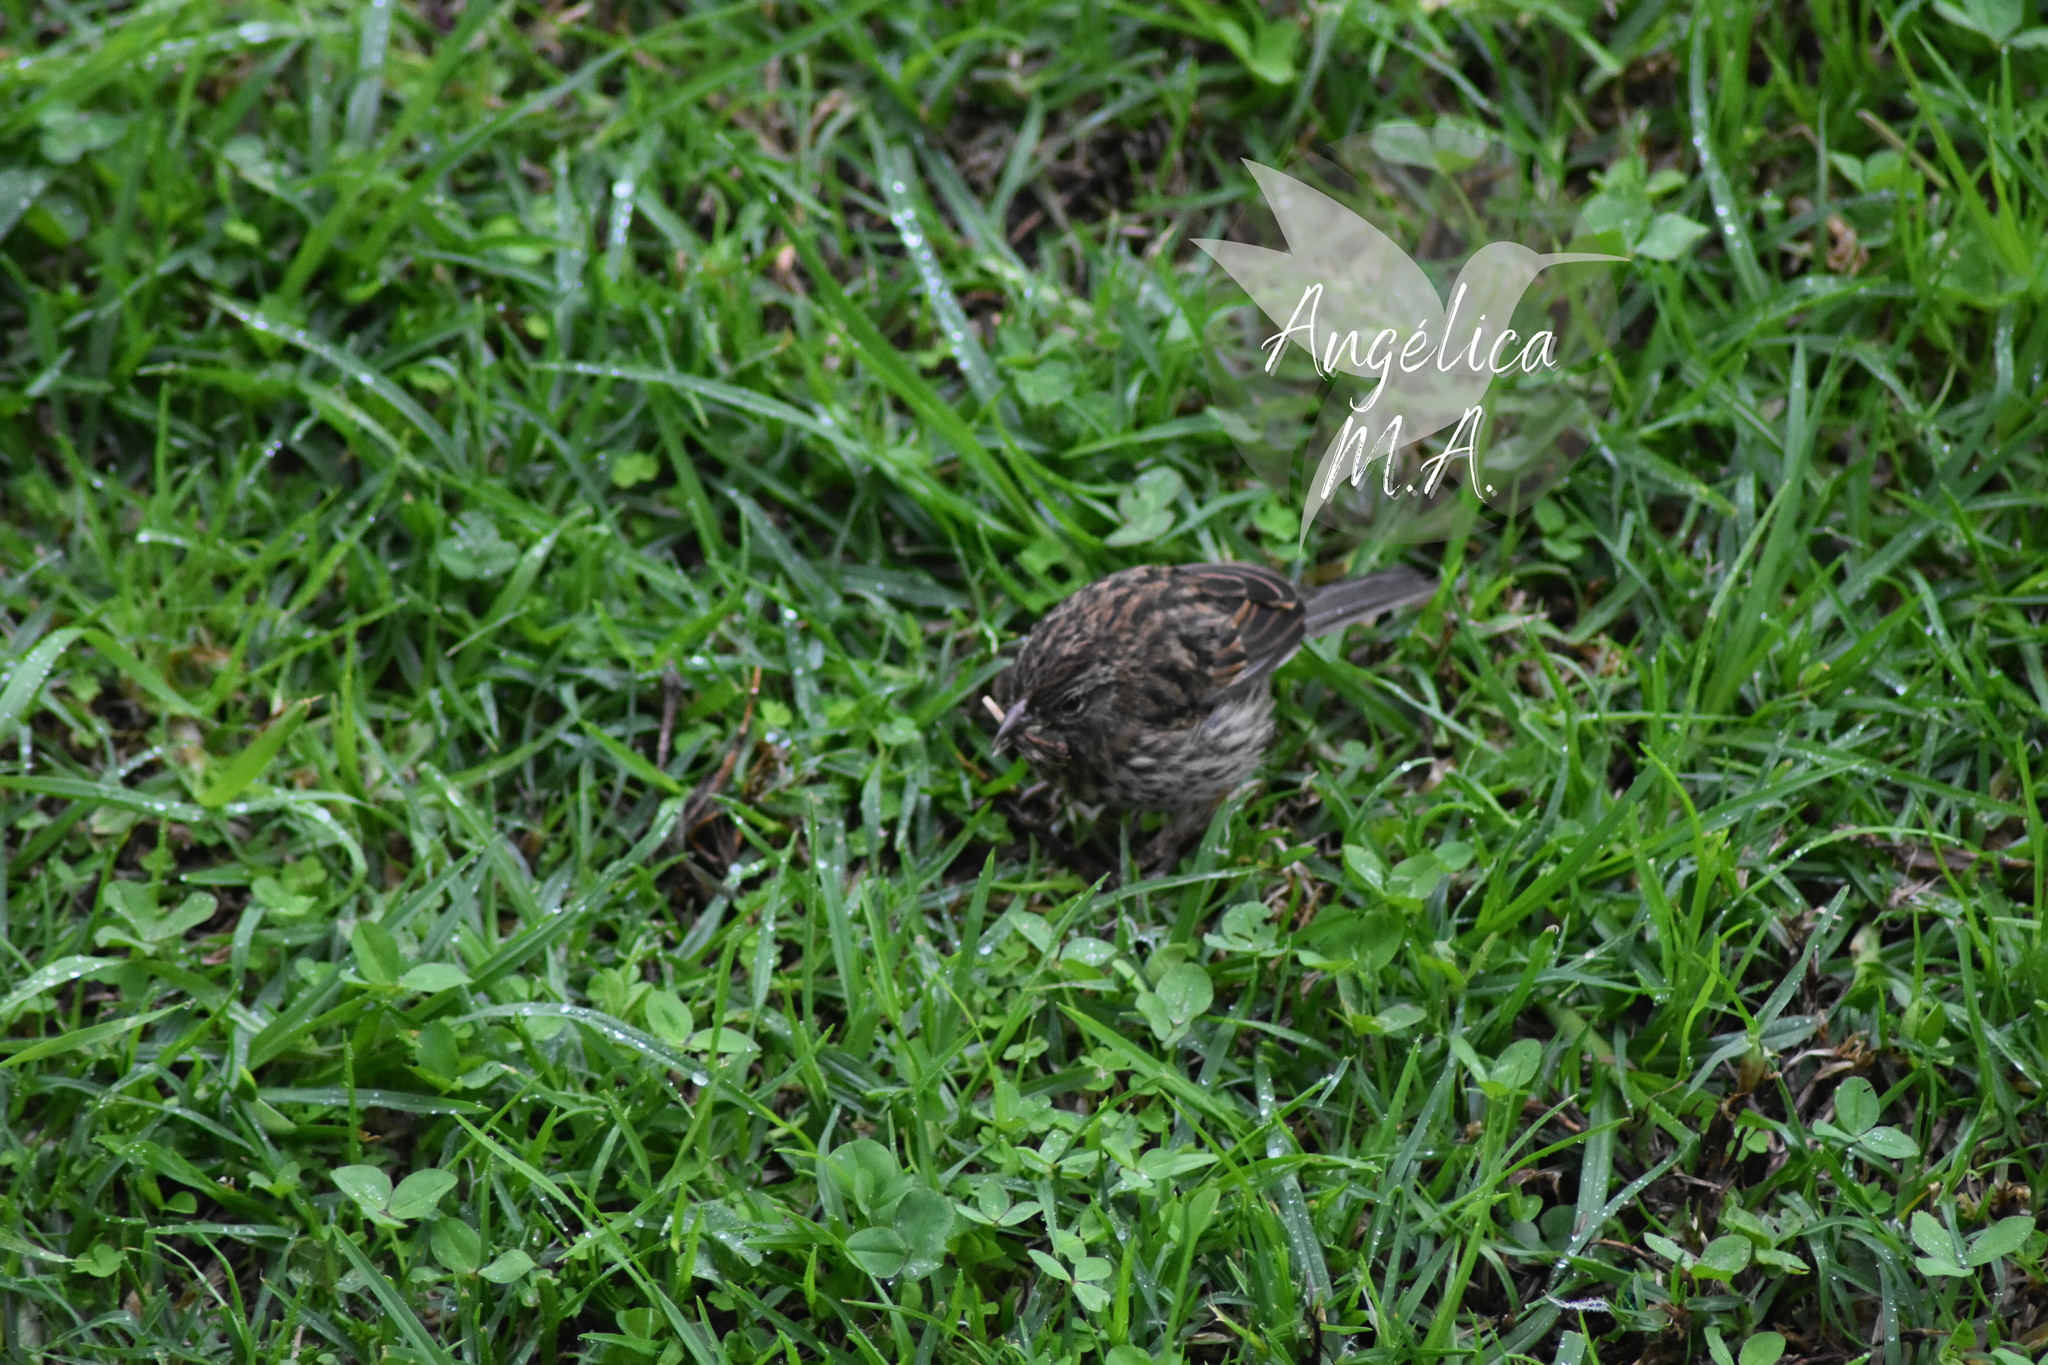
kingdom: Animalia
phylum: Chordata
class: Aves
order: Passeriformes
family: Passerellidae
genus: Zonotrichia
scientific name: Zonotrichia capensis
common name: Rufous-collared sparrow
